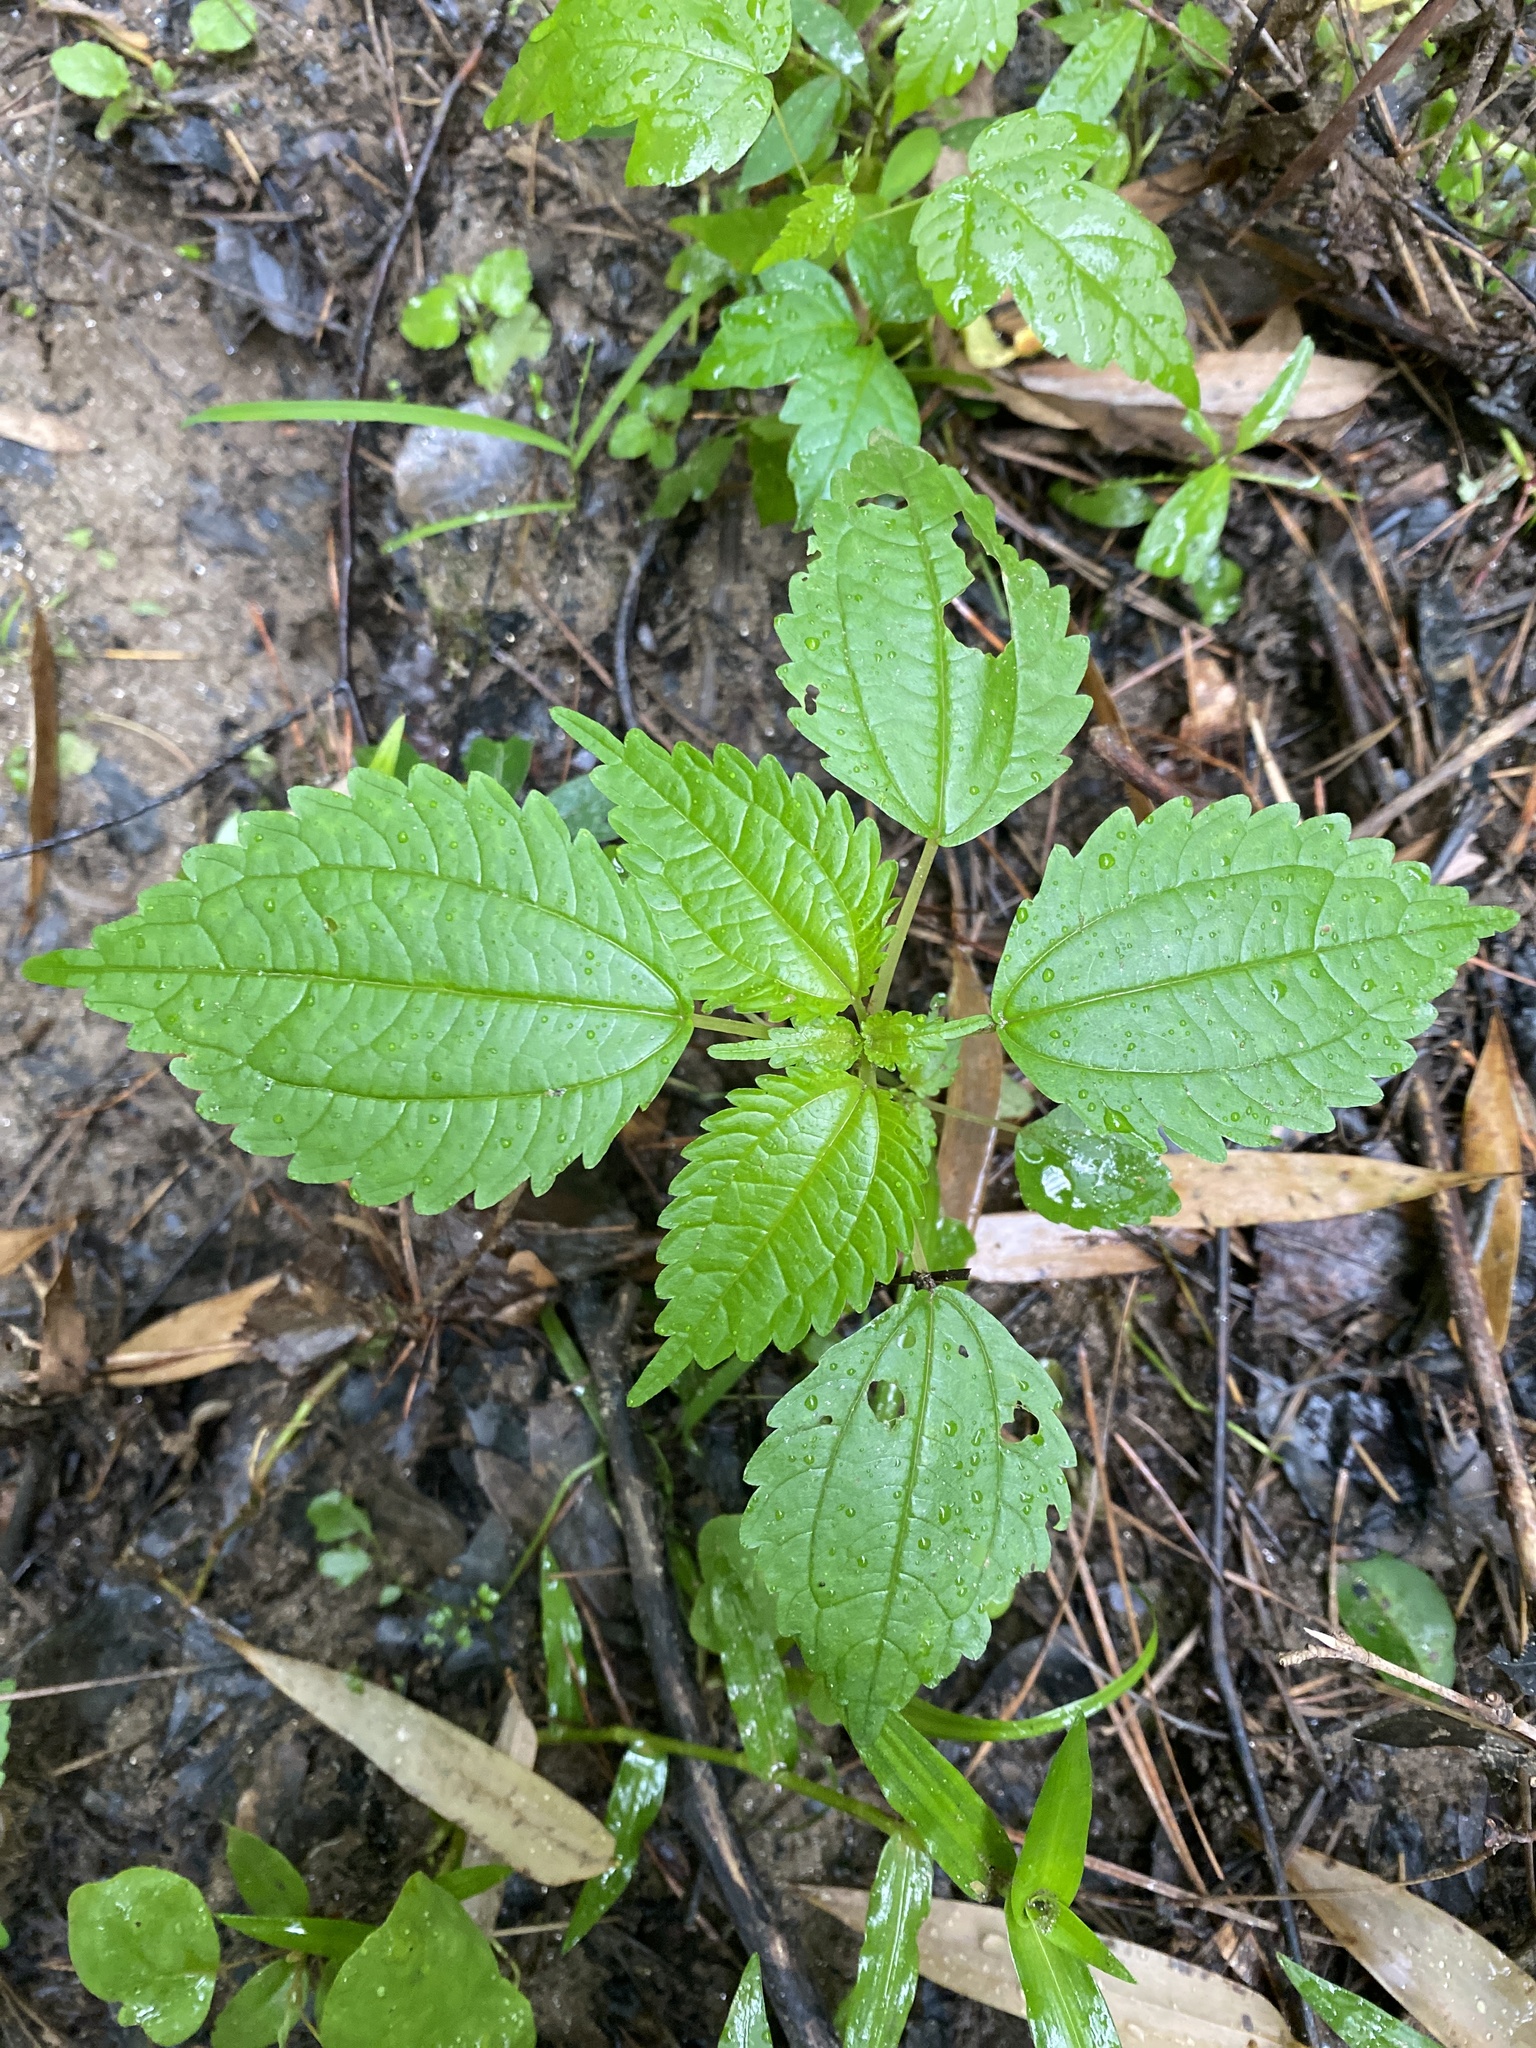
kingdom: Plantae
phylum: Tracheophyta
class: Magnoliopsida
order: Rosales
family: Urticaceae
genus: Pilea
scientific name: Pilea pumila
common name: Clearweed
